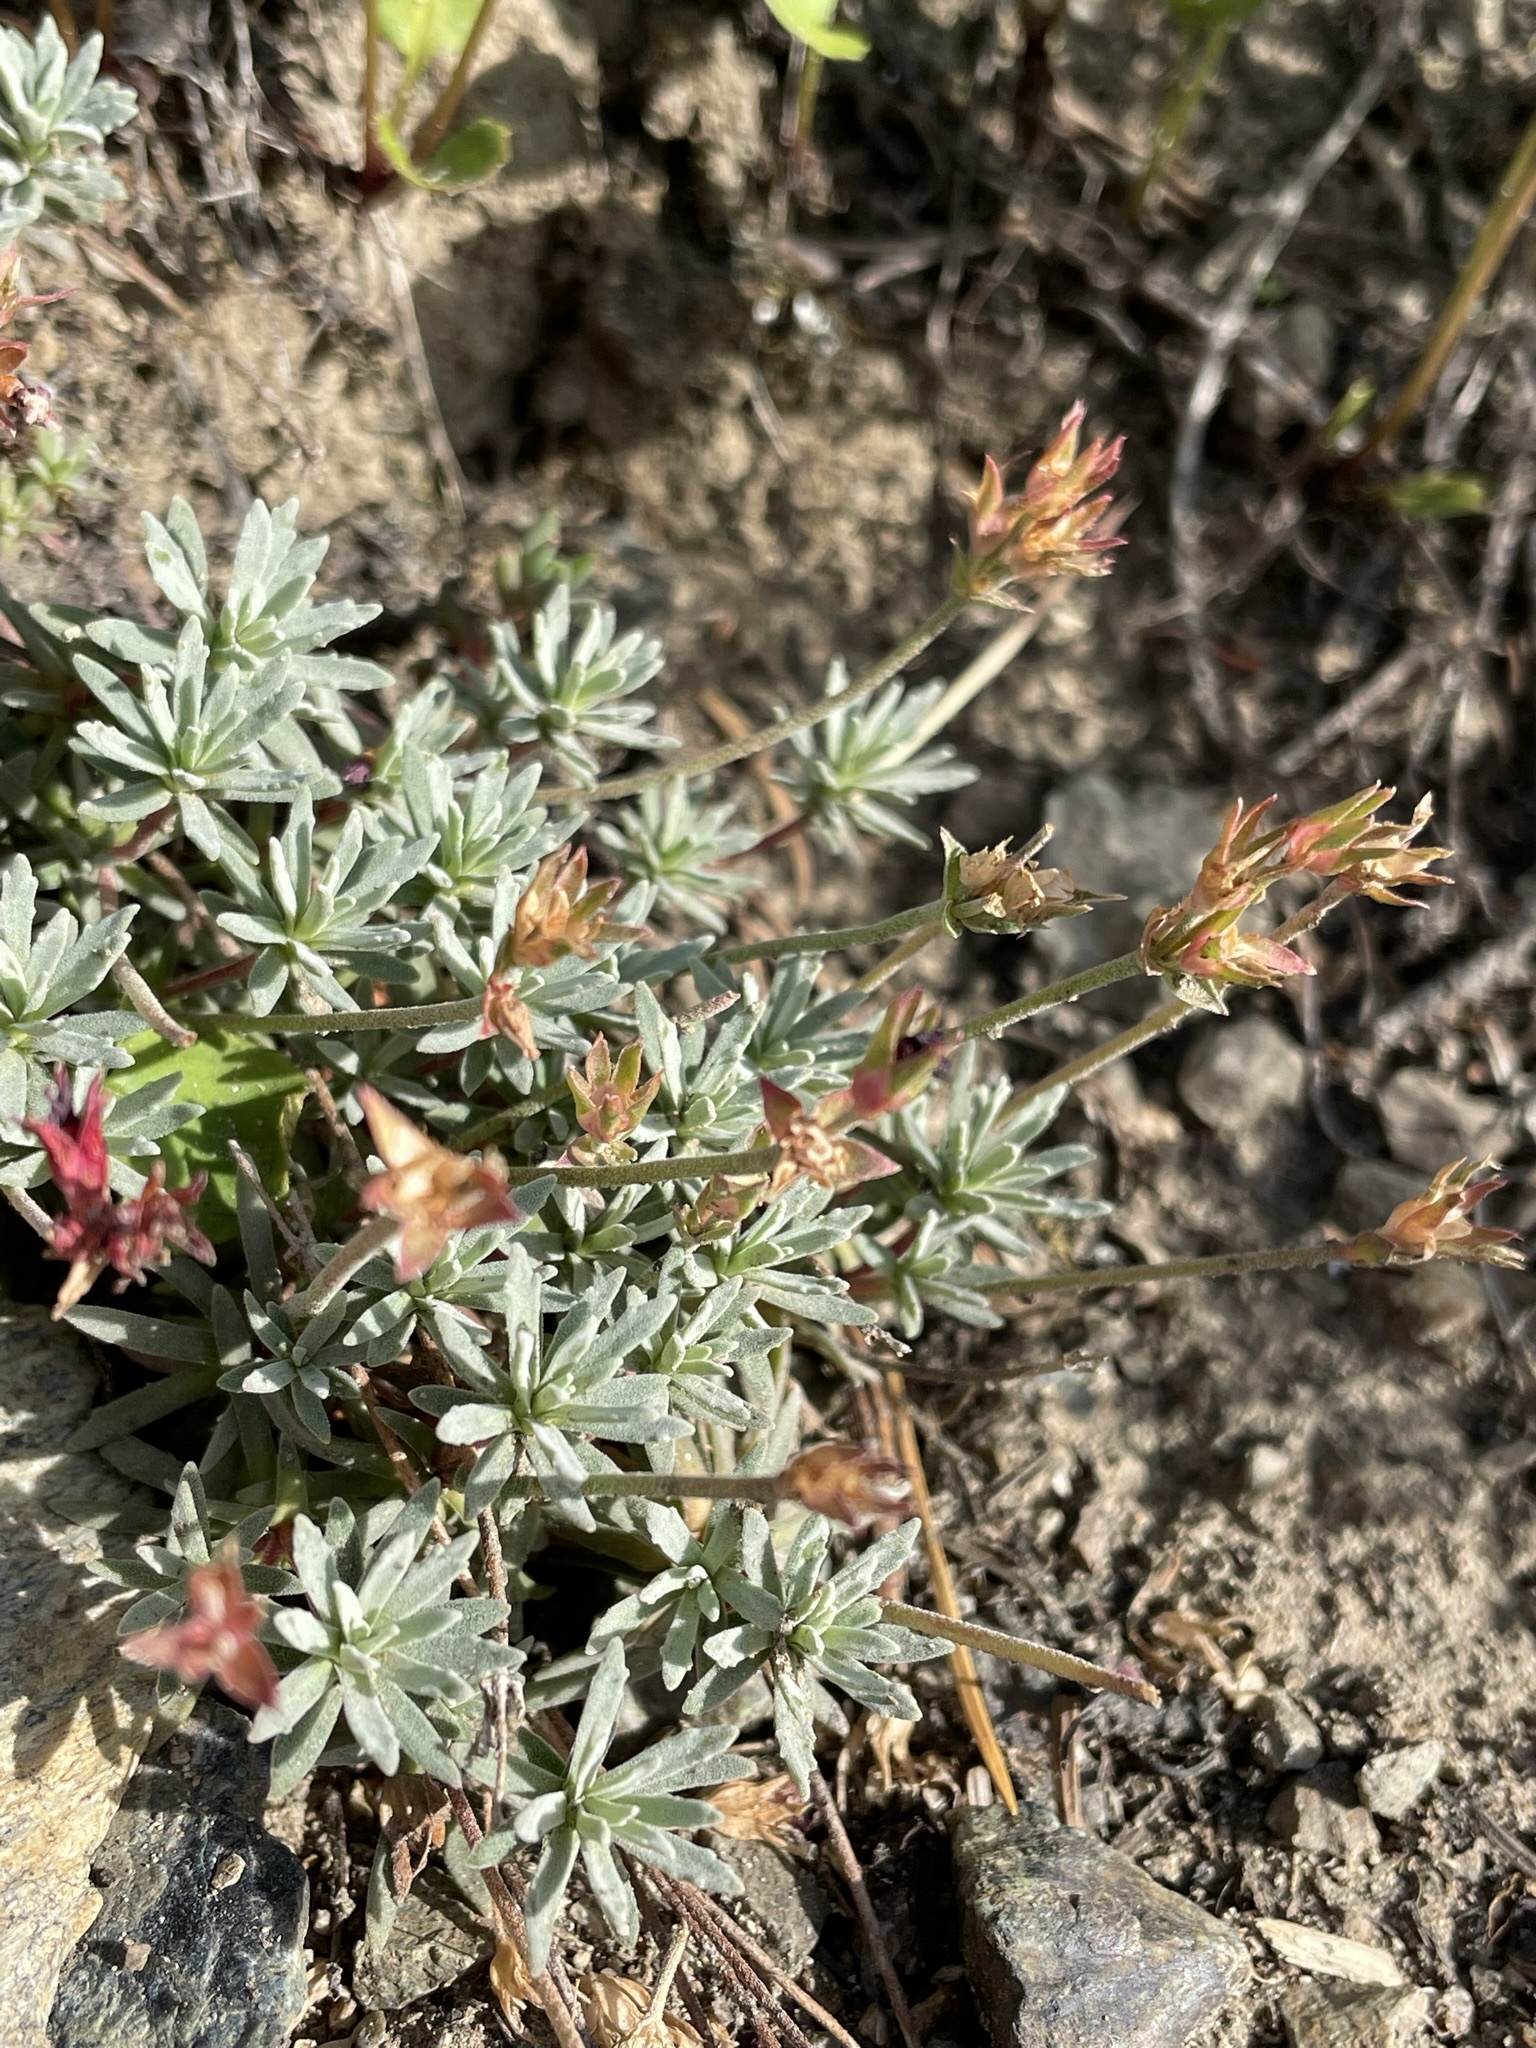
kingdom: Plantae
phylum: Tracheophyta
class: Magnoliopsida
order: Ericales
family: Primulaceae
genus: Androsace
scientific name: Androsace nivalis
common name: Snow dwarf-primrose
